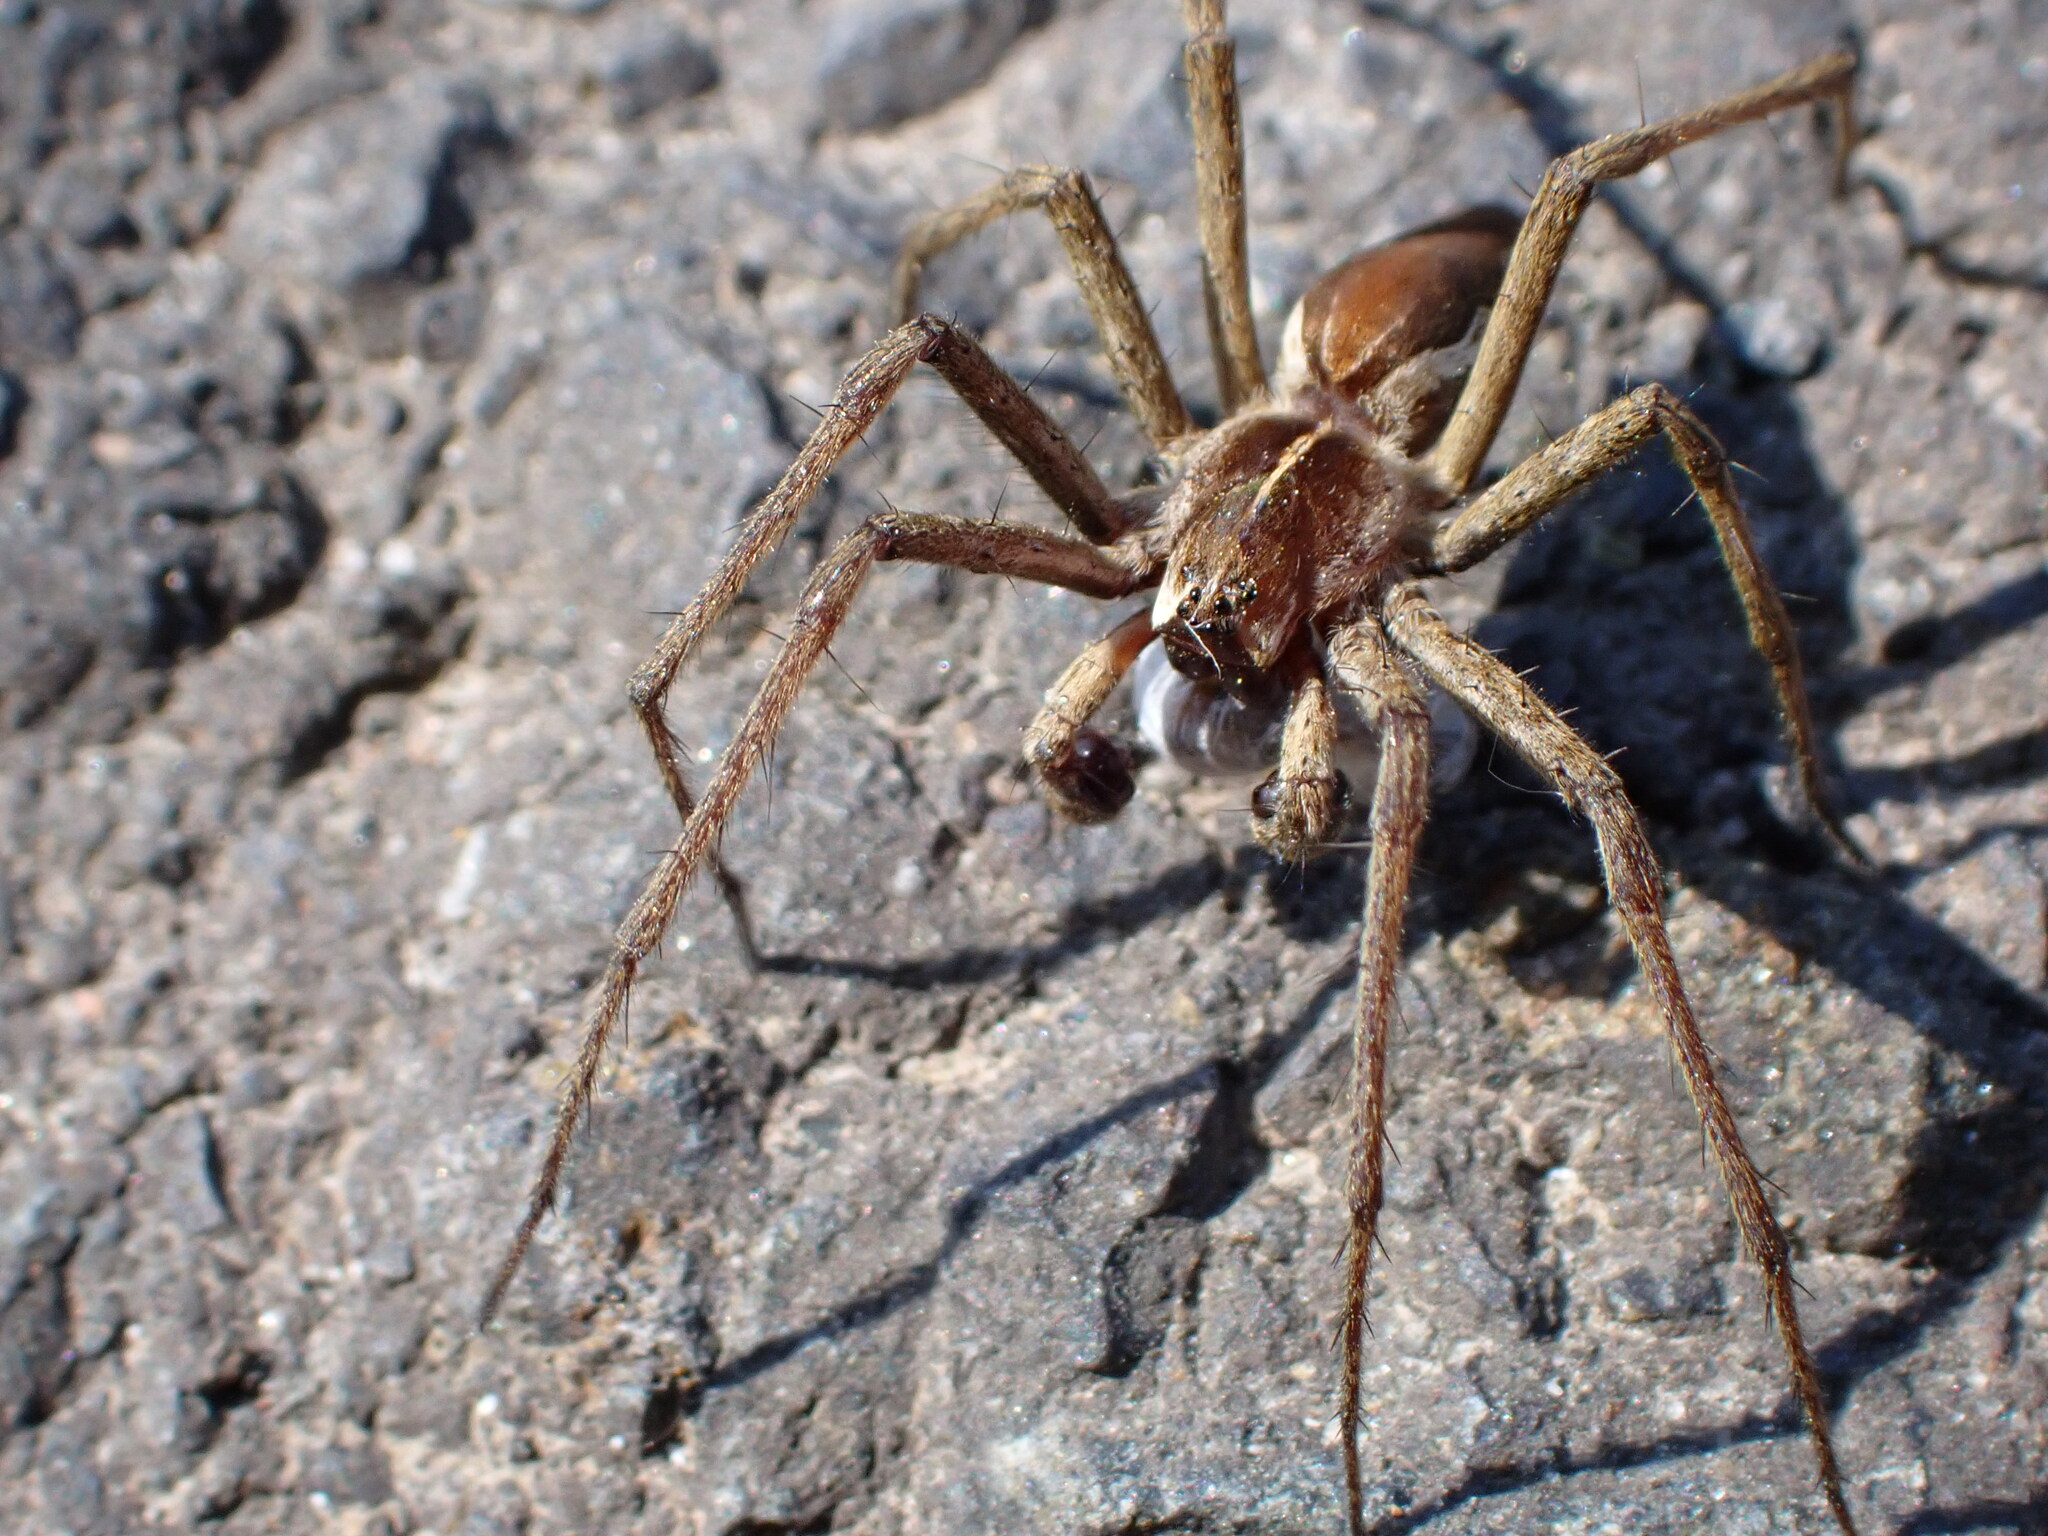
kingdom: Animalia
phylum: Arthropoda
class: Arachnida
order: Araneae
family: Pisauridae
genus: Pisaura
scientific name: Pisaura mirabilis
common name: Tent spider
